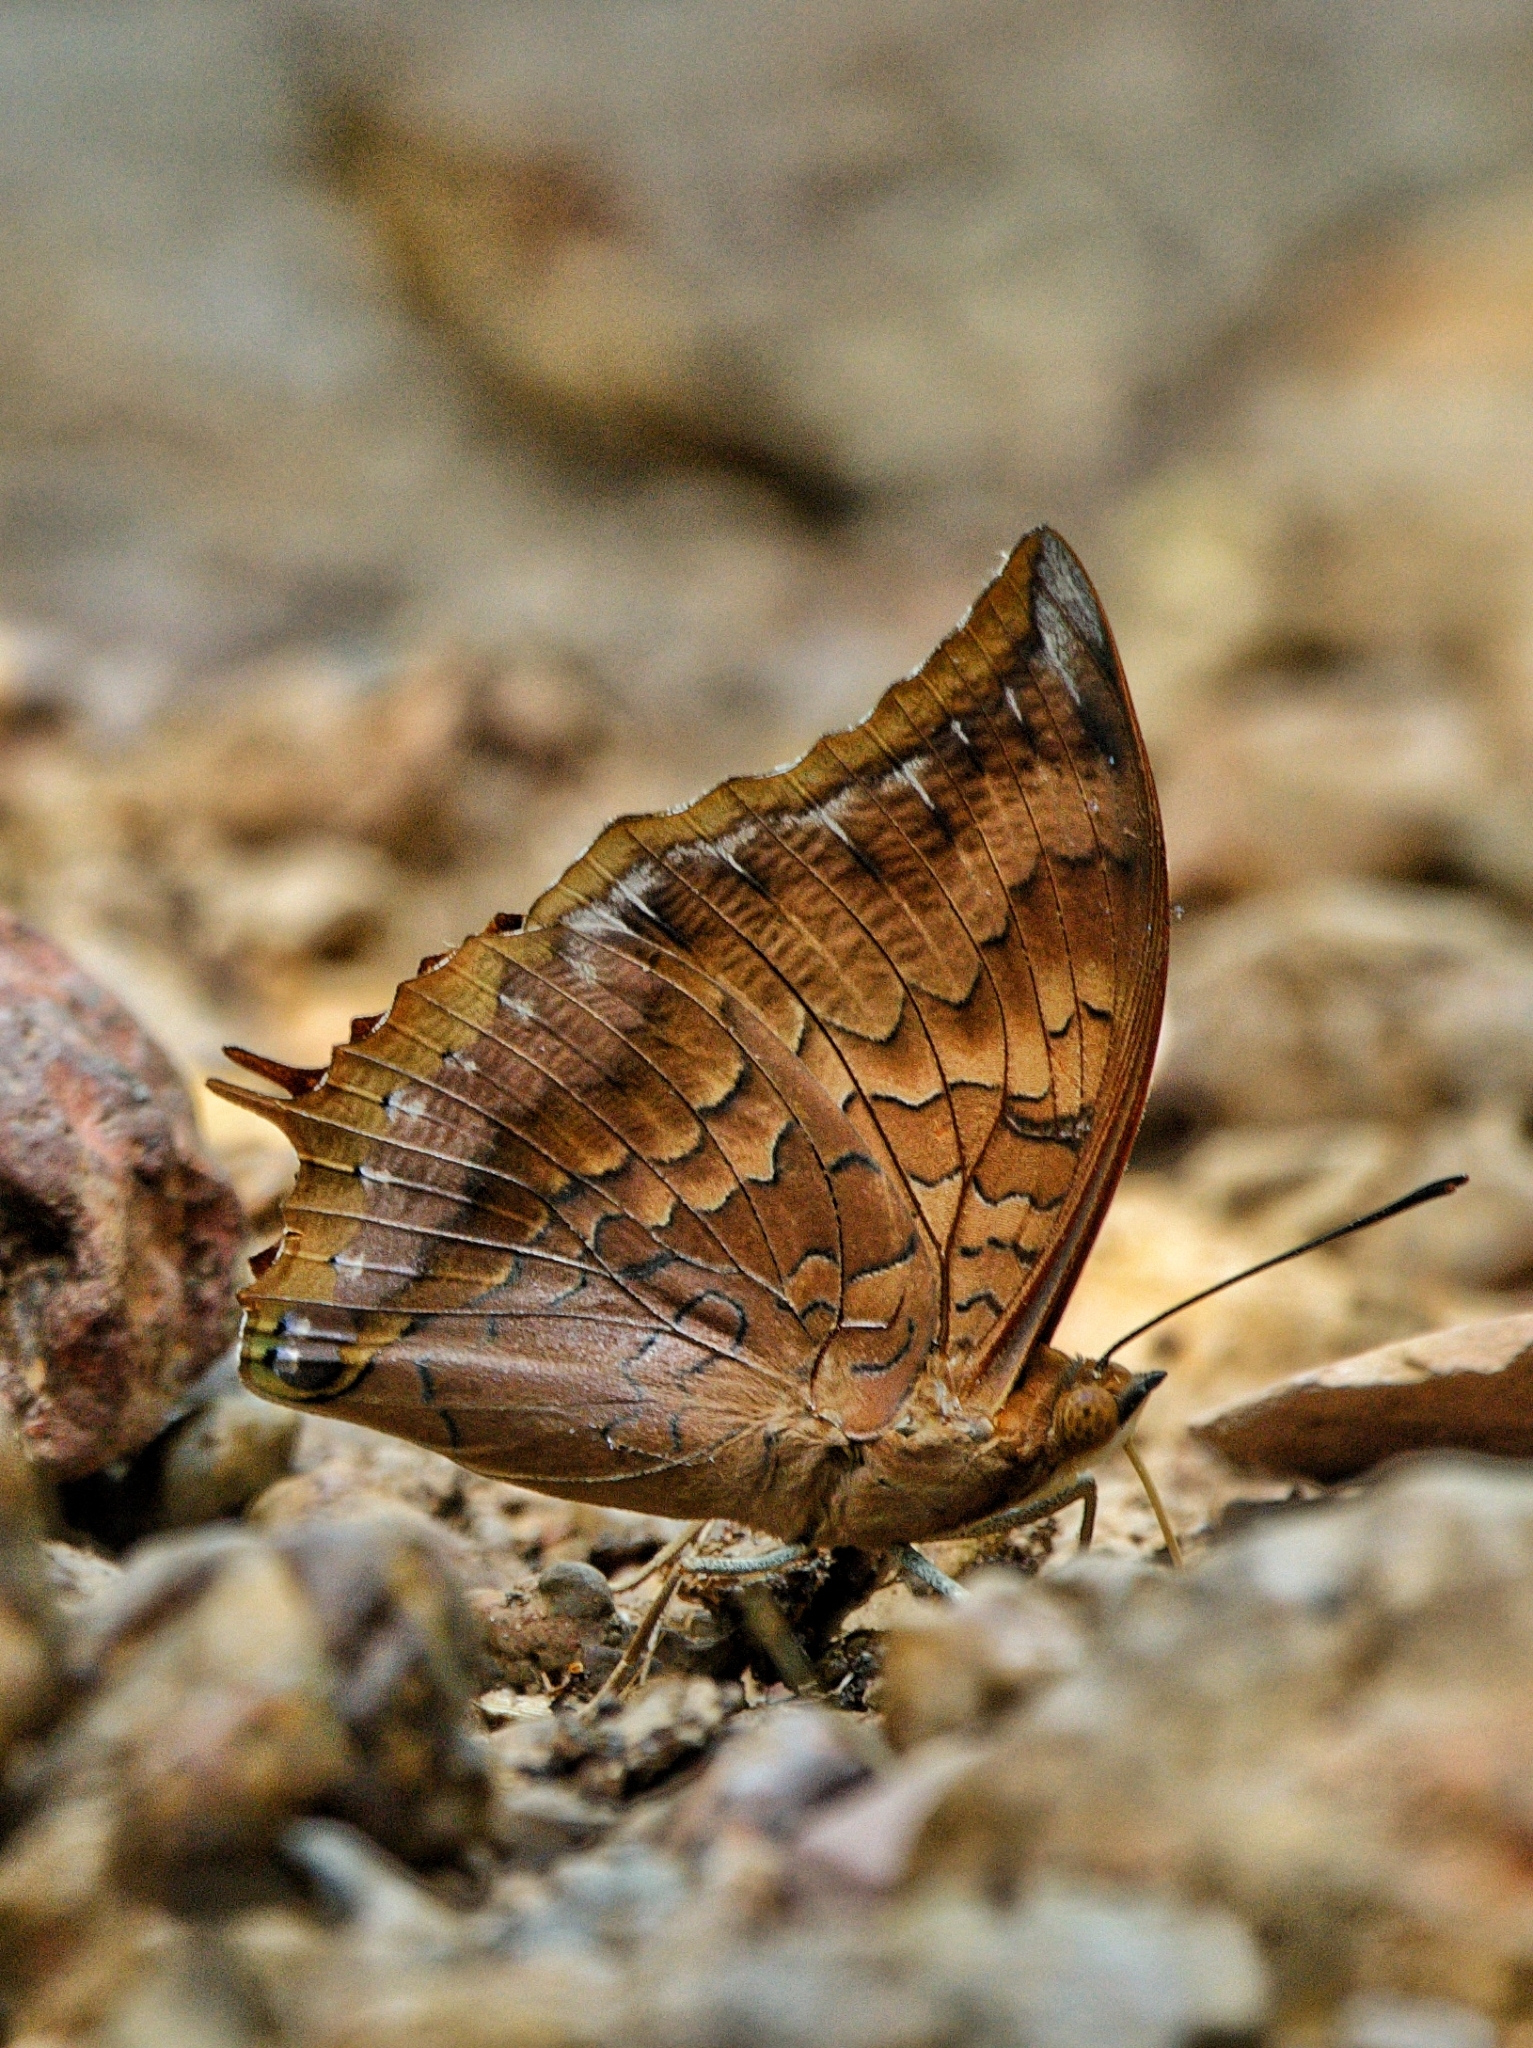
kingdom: Animalia
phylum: Arthropoda
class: Insecta
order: Lepidoptera
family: Nymphalidae
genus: Charaxes
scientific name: Charaxes bernardus
